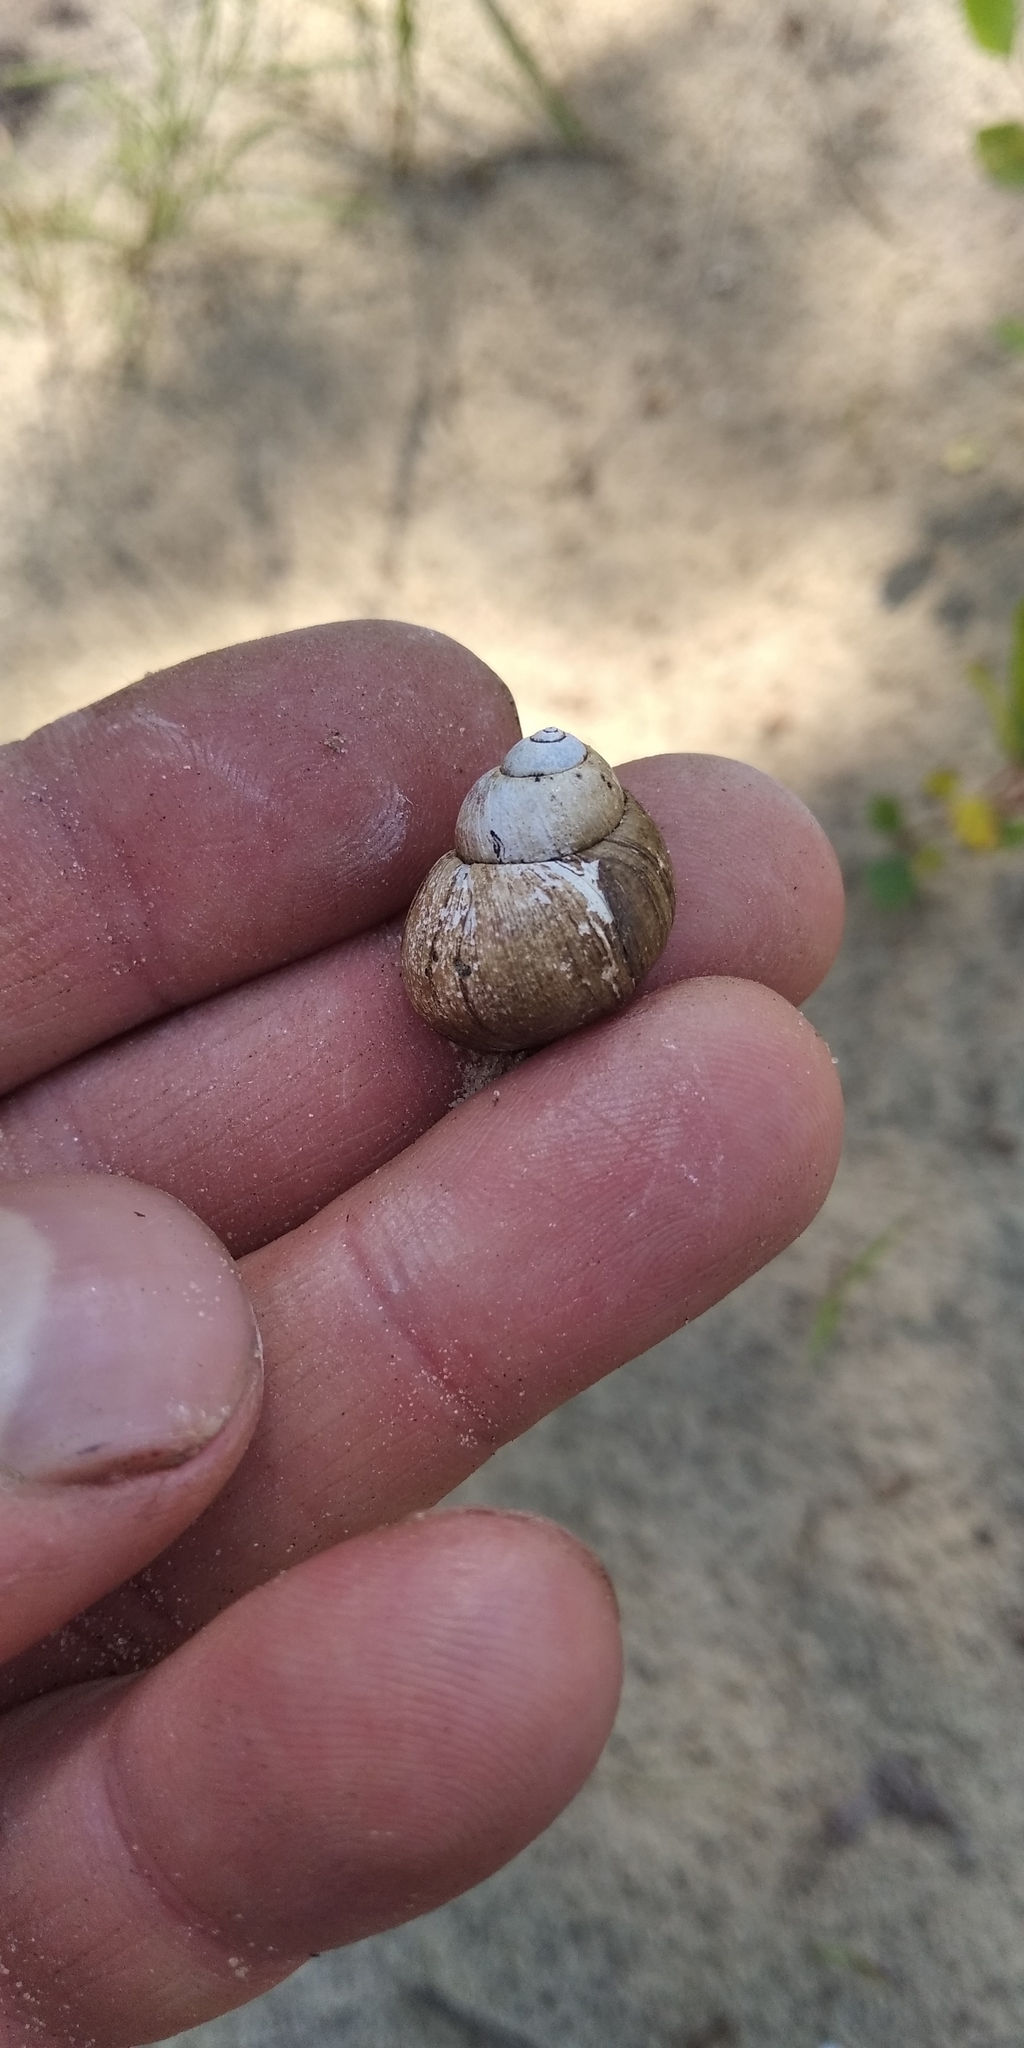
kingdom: Animalia
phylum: Mollusca
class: Gastropoda
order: Architaenioglossa
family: Viviparidae
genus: Viviparus
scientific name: Viviparus viviparus
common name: River snail
